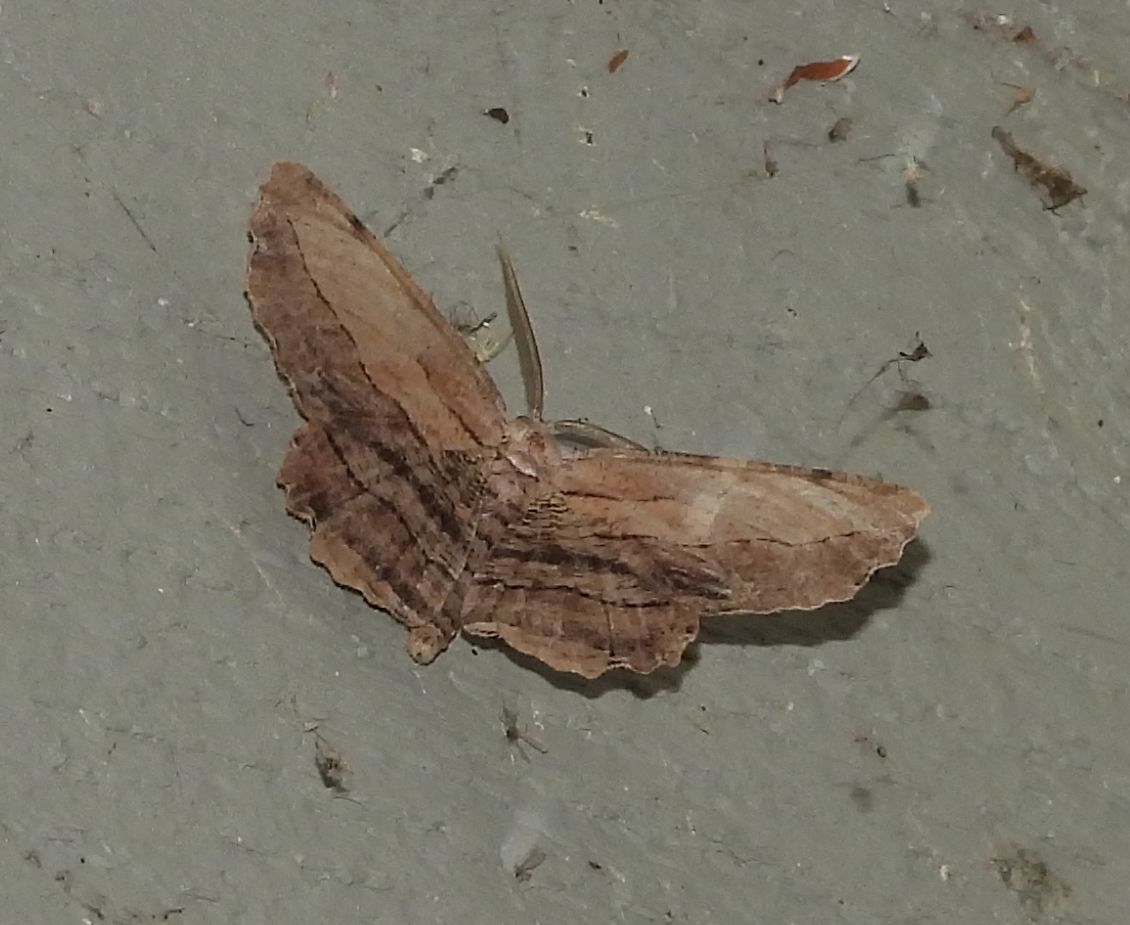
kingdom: Animalia
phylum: Arthropoda
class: Insecta
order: Lepidoptera
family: Geometridae
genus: Lytrosis
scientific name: Lytrosis unitaria
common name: Common lytrosis
